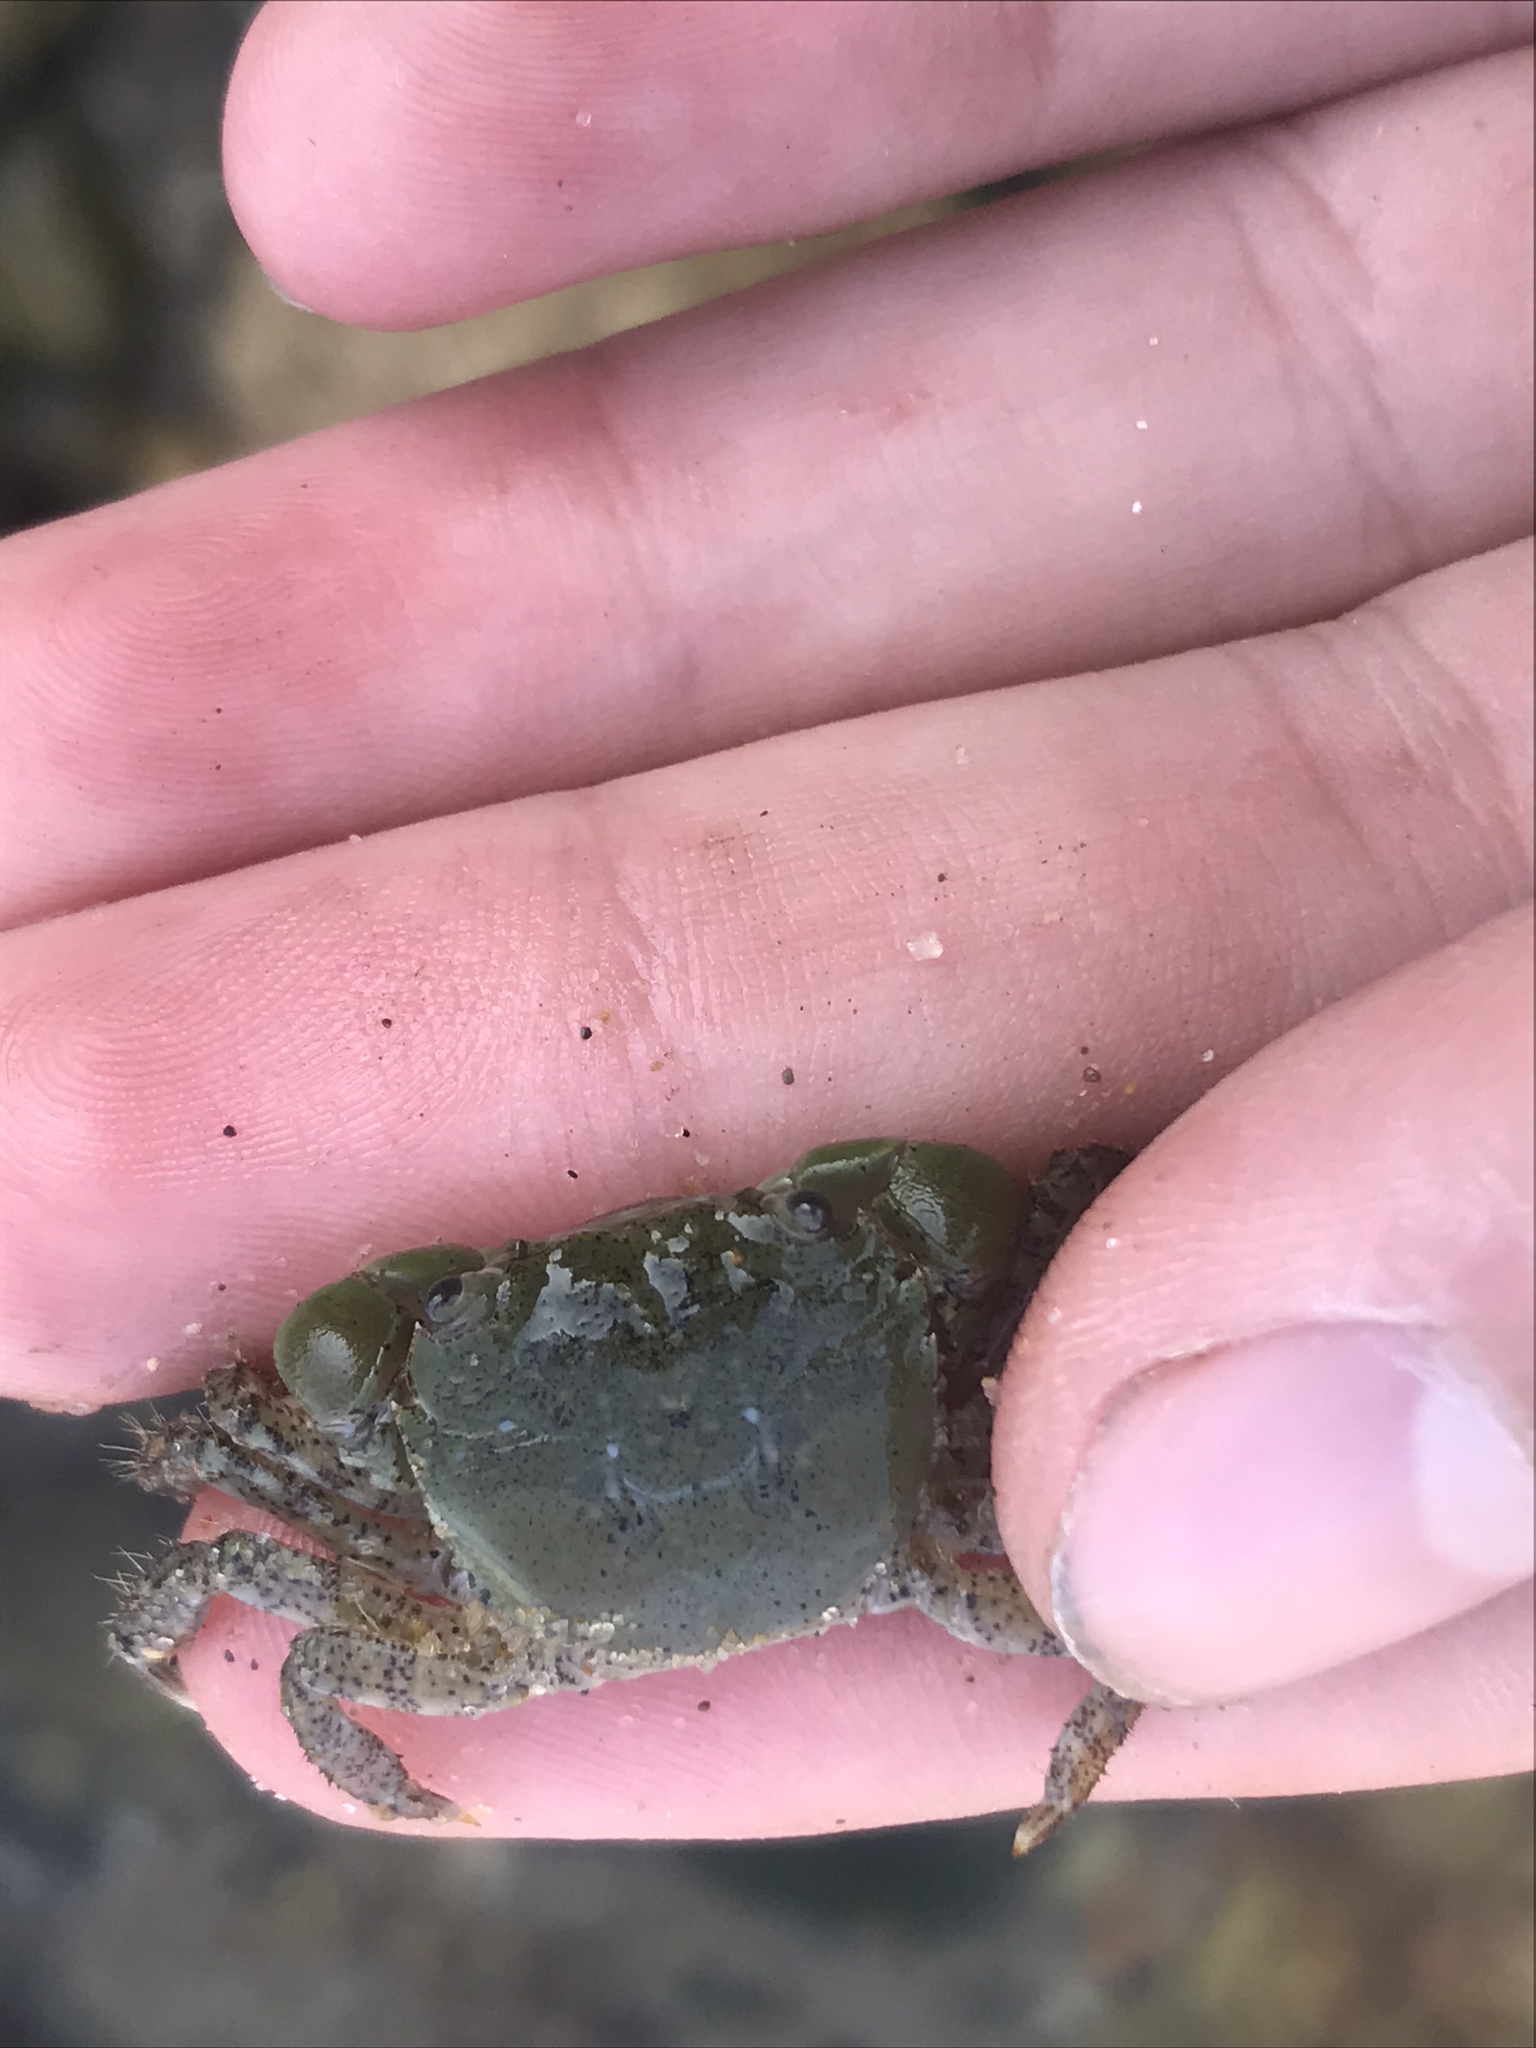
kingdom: Animalia
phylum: Arthropoda
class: Malacostraca
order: Decapoda
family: Varunidae
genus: Hemigrapsus
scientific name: Hemigrapsus oregonensis
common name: Yellow shore crab
